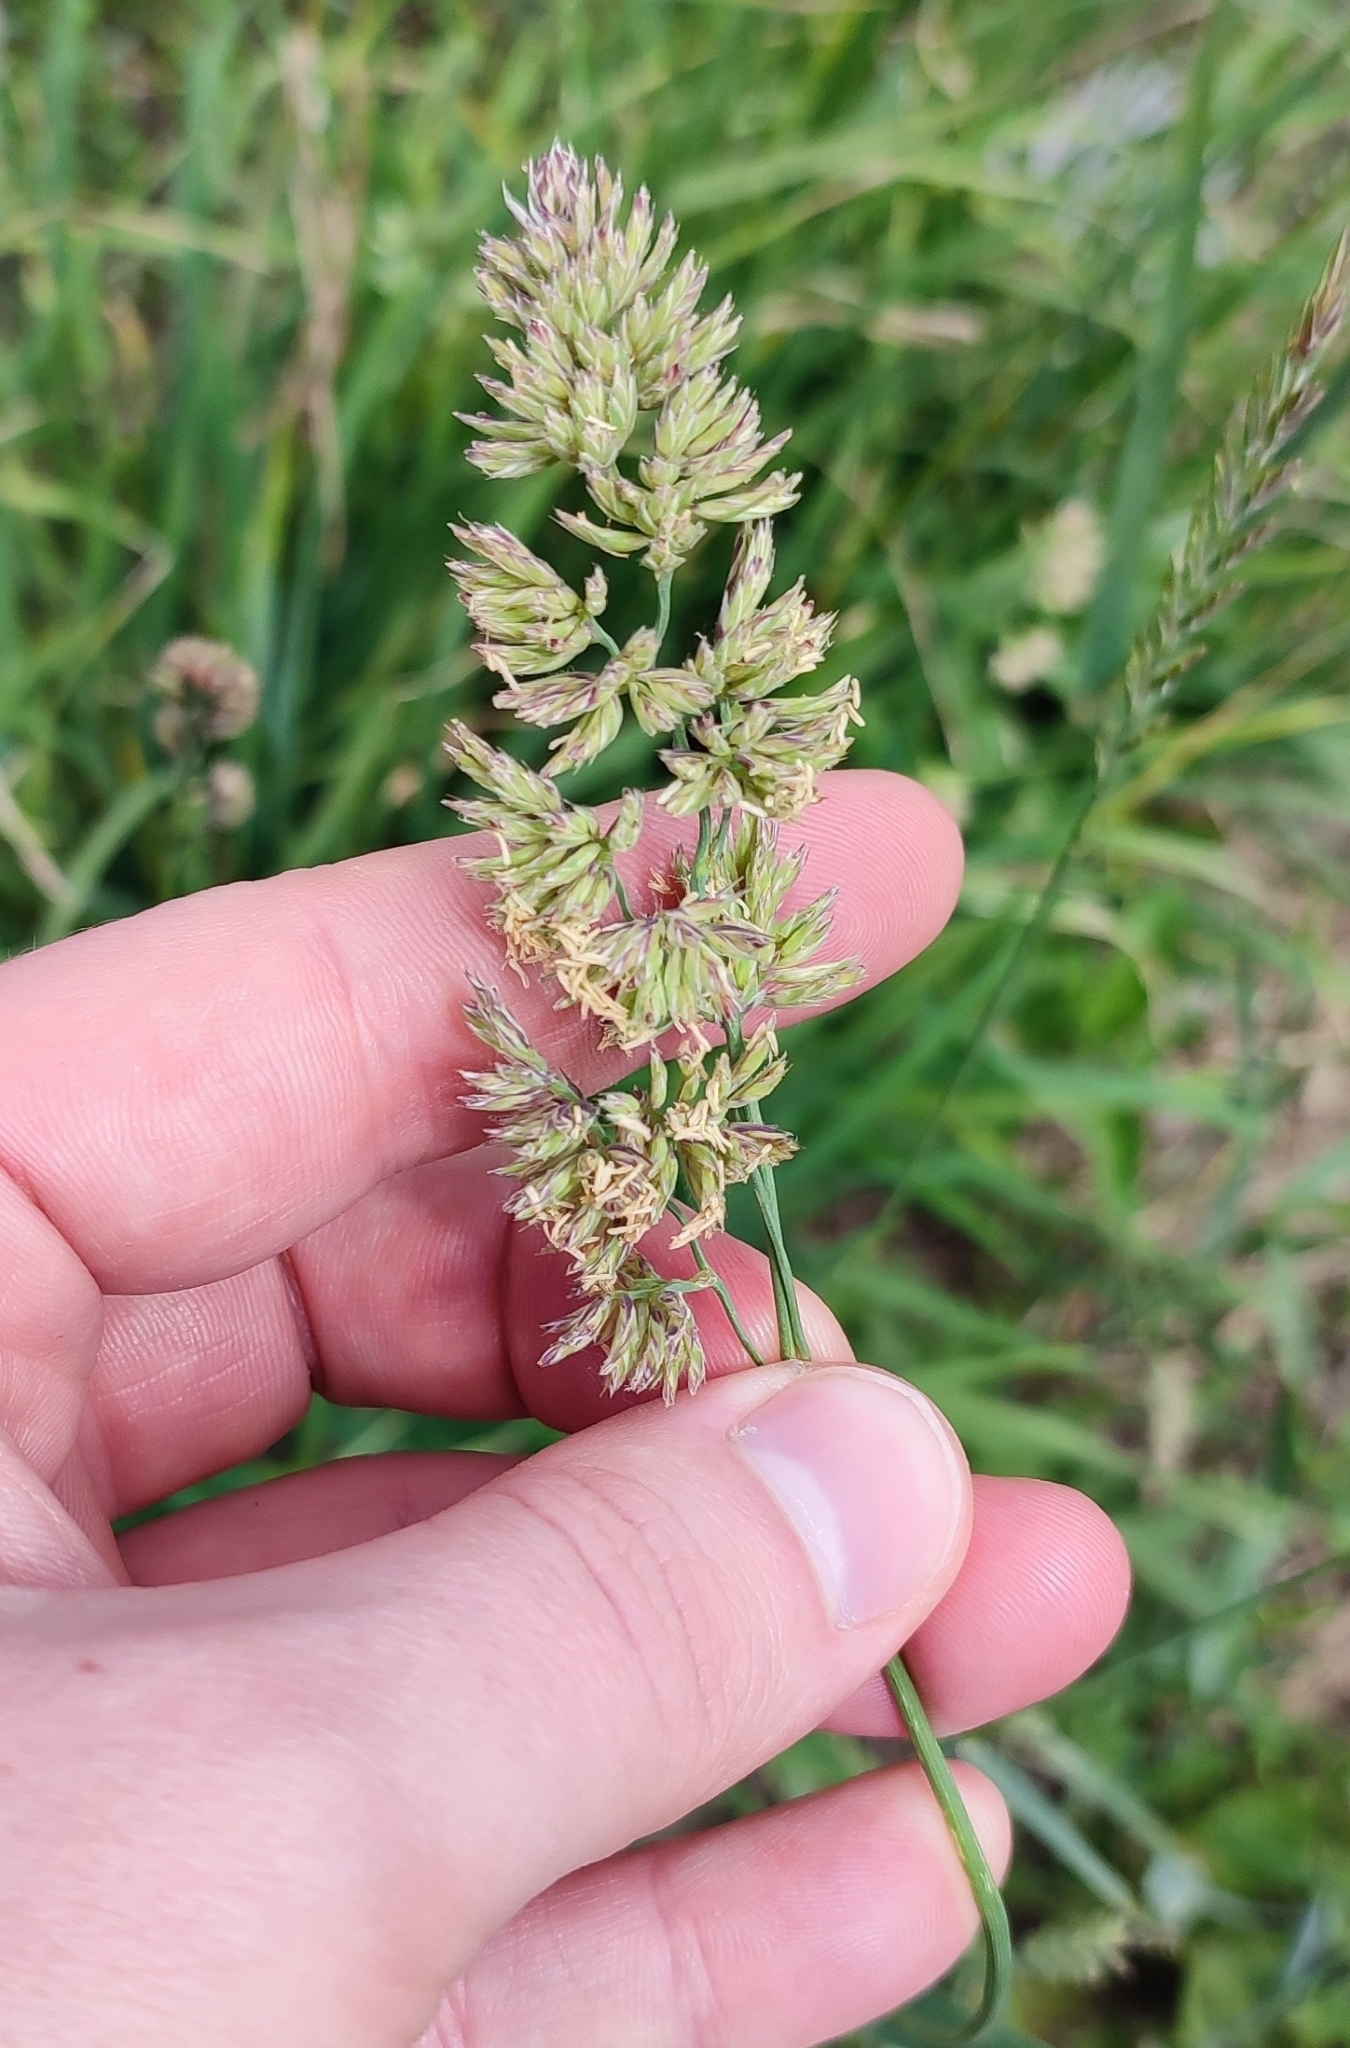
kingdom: Plantae
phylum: Tracheophyta
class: Liliopsida
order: Poales
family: Poaceae
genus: Dactylis
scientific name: Dactylis glomerata
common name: Orchardgrass
